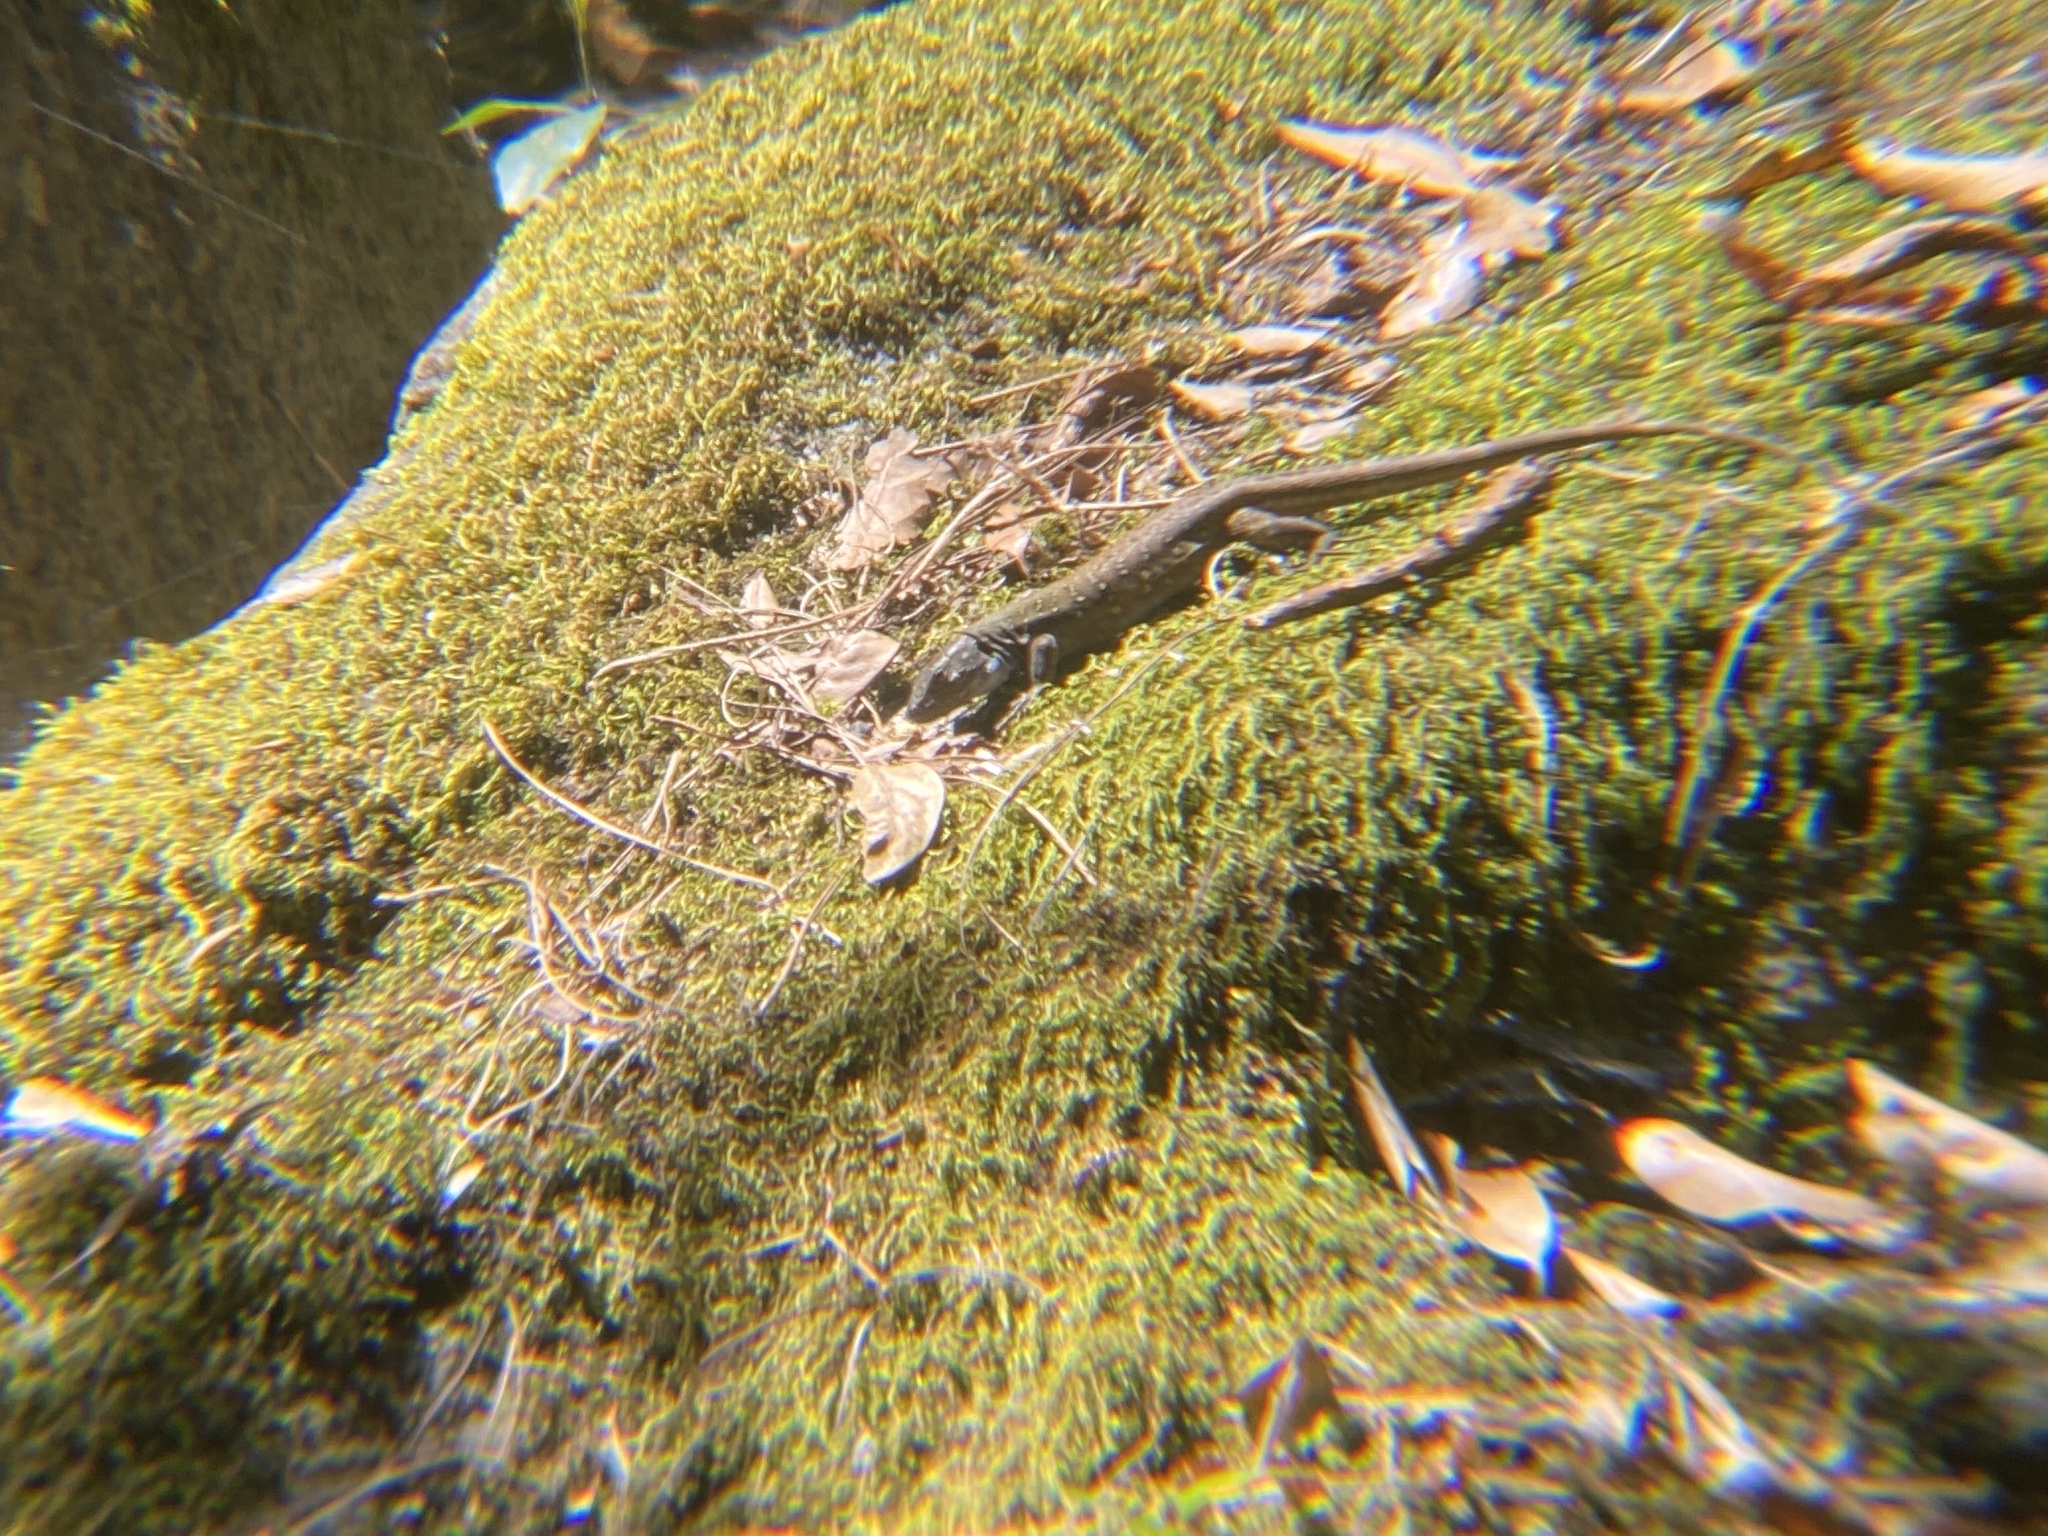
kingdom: Animalia
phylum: Chordata
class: Squamata
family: Lacertidae
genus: Gallotia
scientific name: Gallotia galloti
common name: Gallot's lizard
